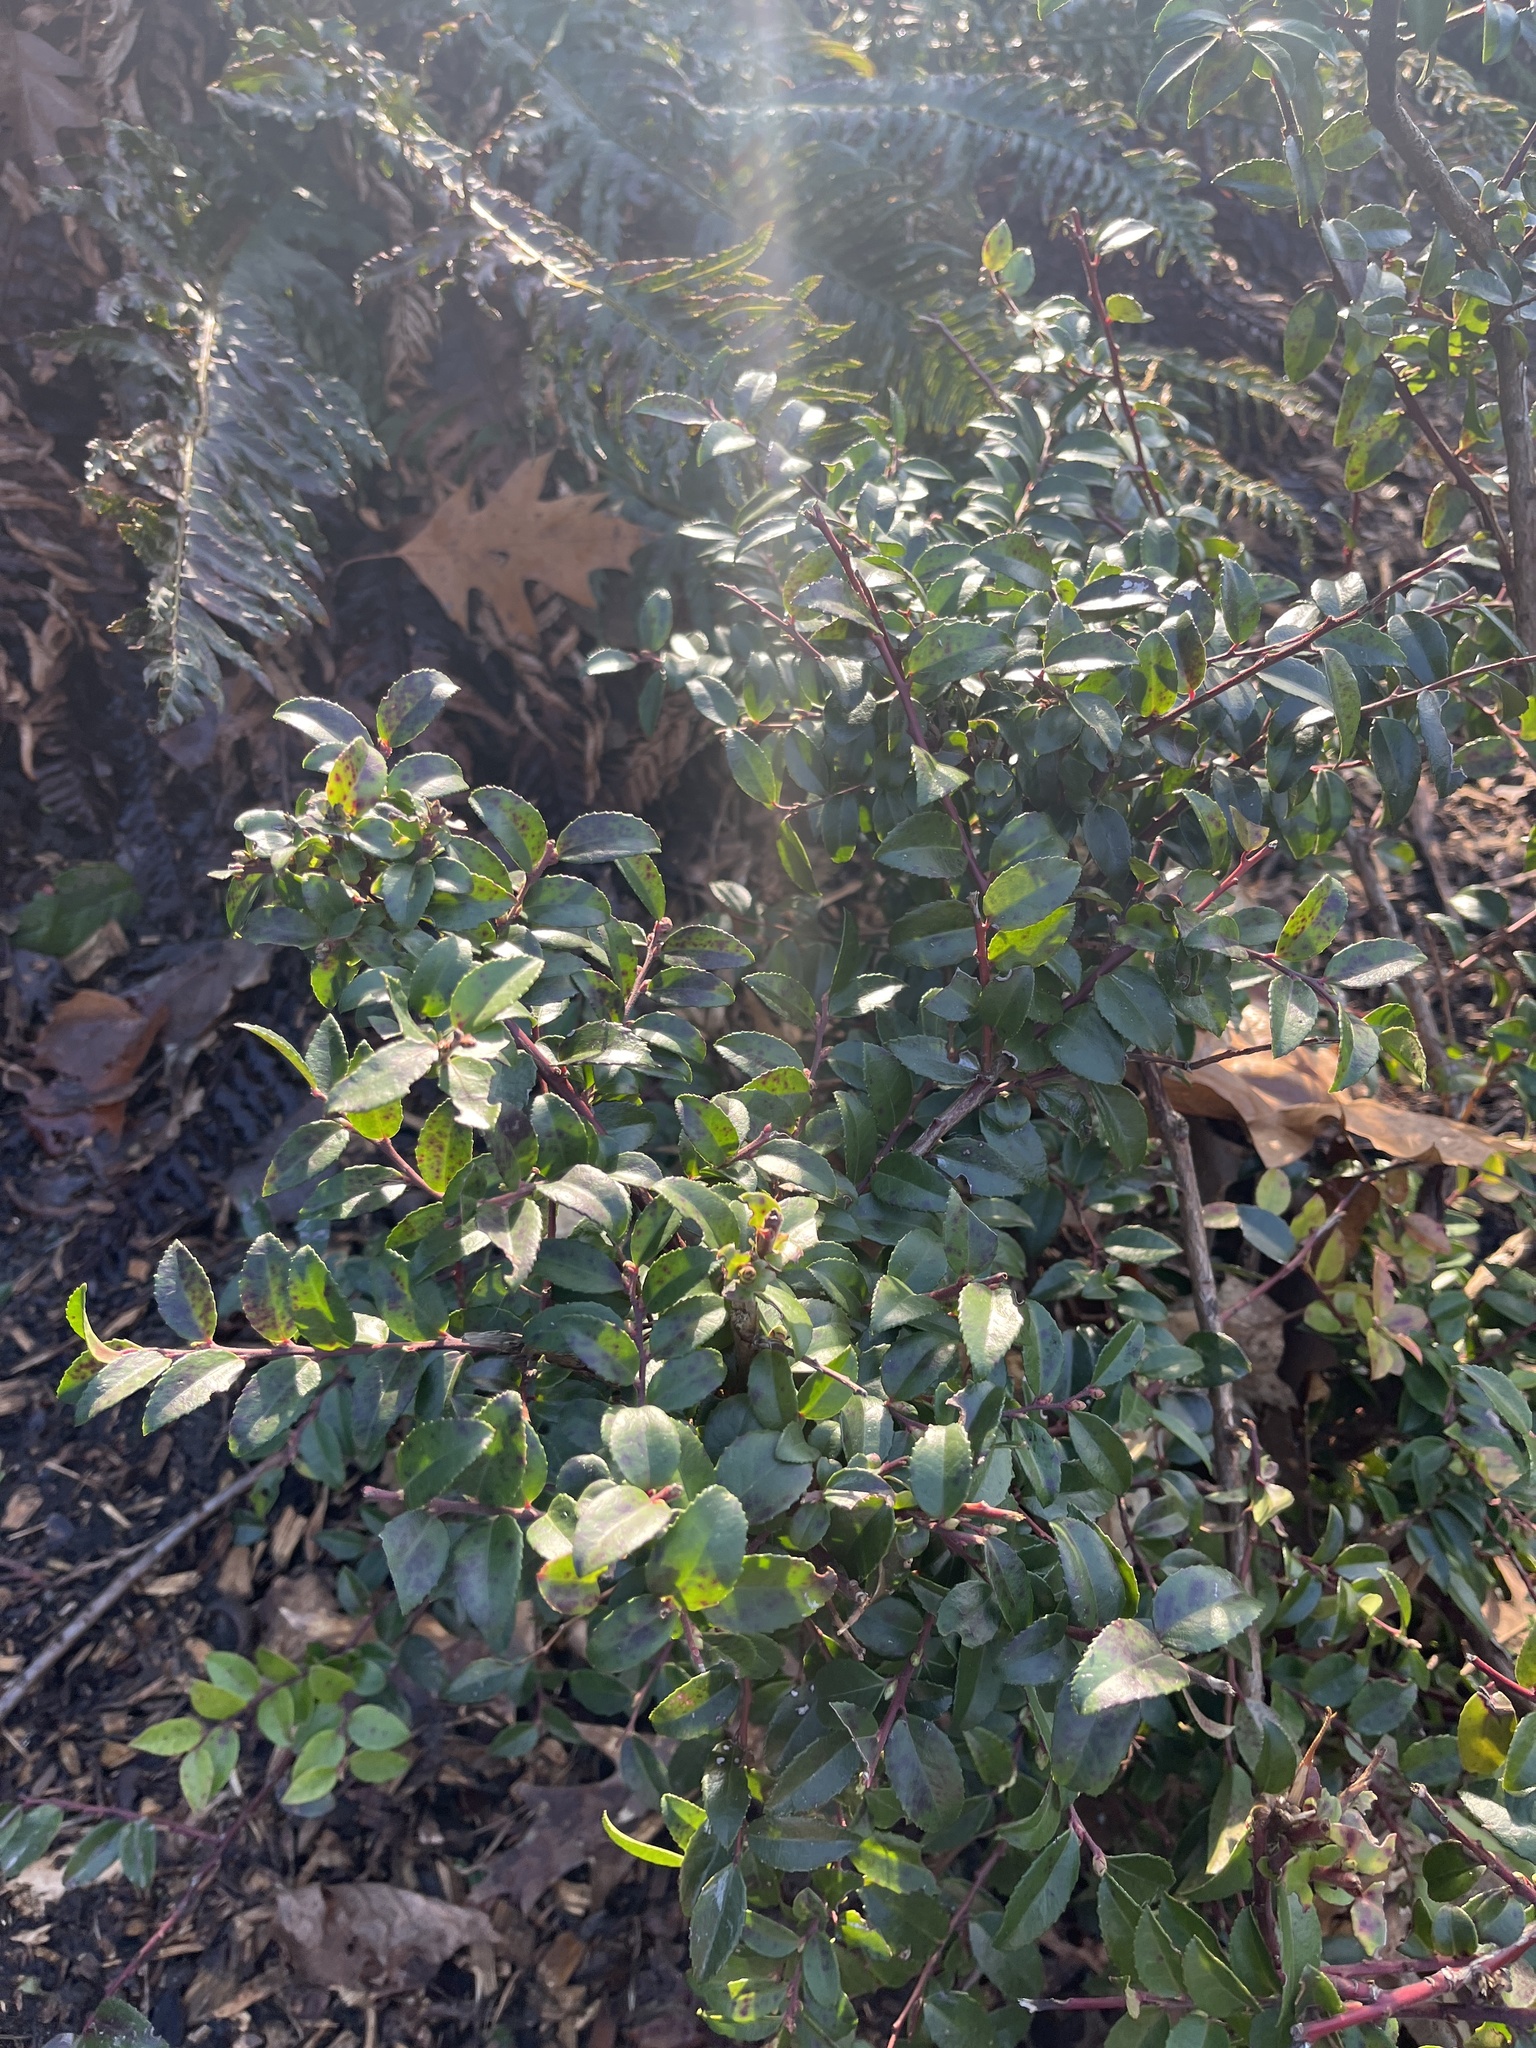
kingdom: Plantae
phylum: Tracheophyta
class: Magnoliopsida
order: Ericales
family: Ericaceae
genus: Vaccinium
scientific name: Vaccinium ovatum
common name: California-huckleberry
